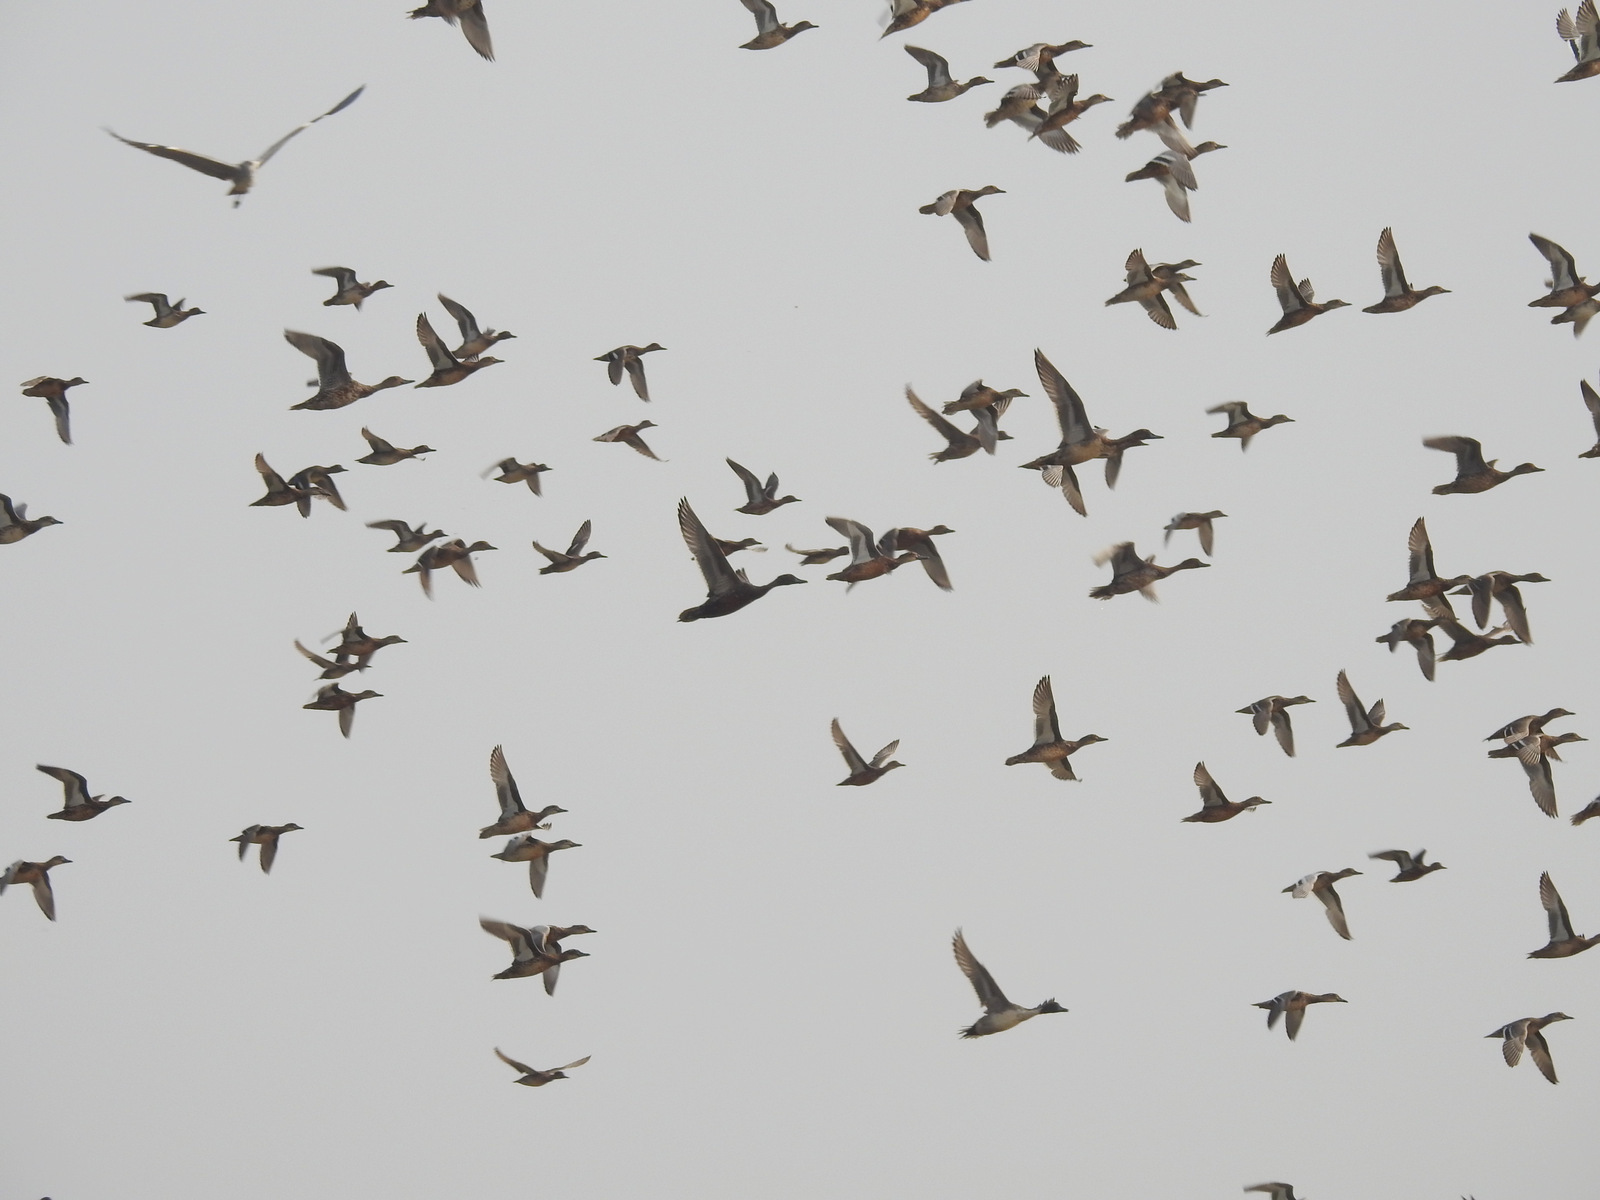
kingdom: Animalia
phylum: Chordata
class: Aves
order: Anseriformes
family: Anatidae
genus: Sarkidiornis
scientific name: Sarkidiornis melanotos
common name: Comb duck
